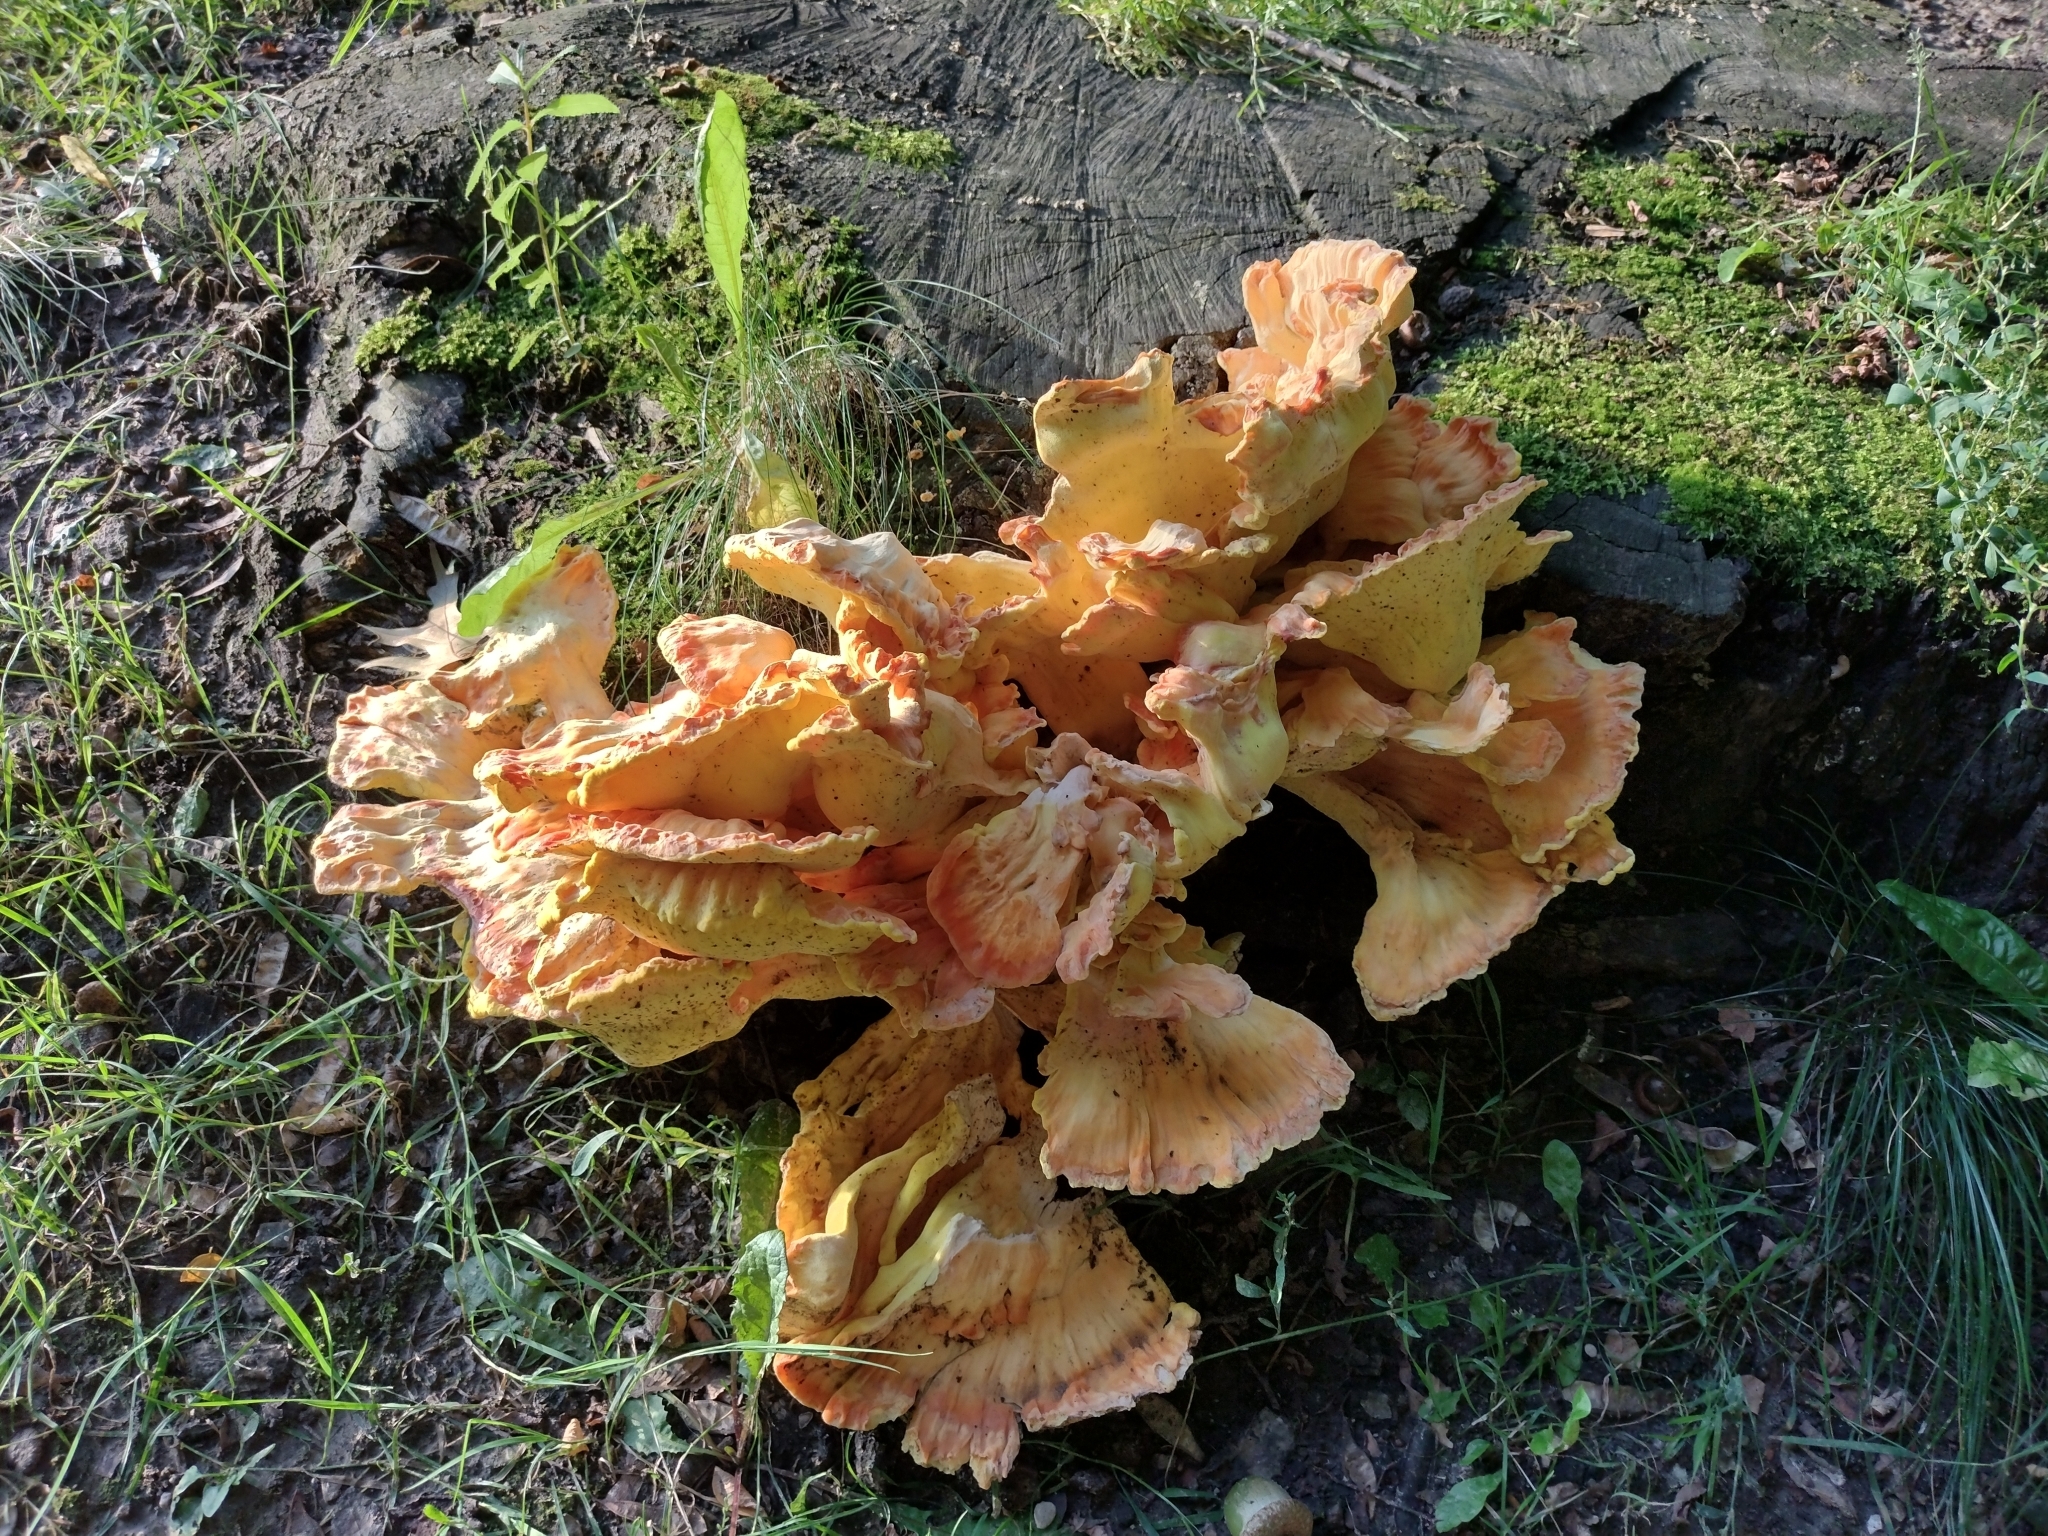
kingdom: Fungi
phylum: Basidiomycota
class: Agaricomycetes
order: Polyporales
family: Laetiporaceae
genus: Laetiporus
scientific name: Laetiporus sulphureus
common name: Chicken of the woods
